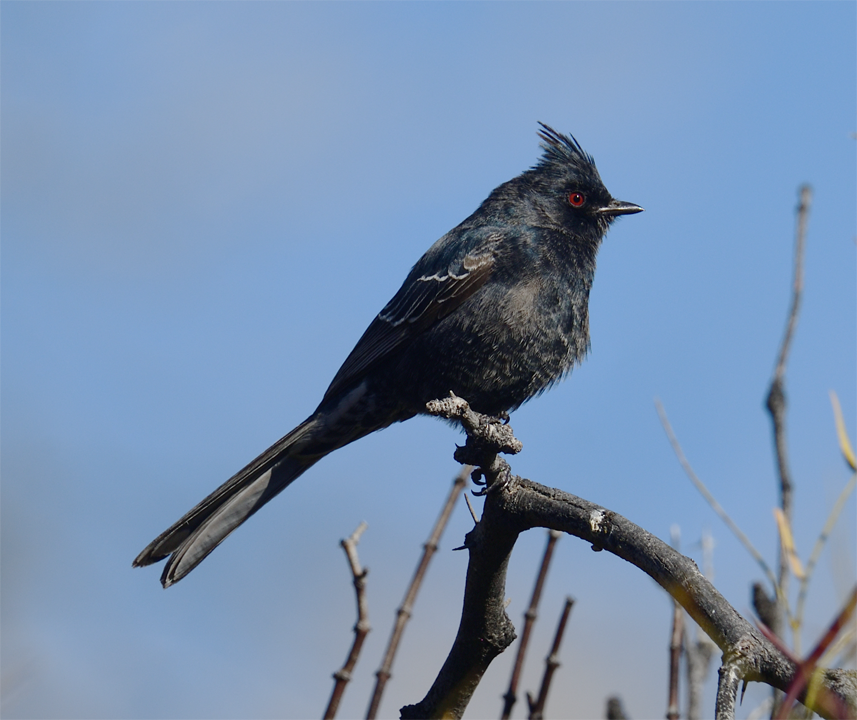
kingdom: Animalia
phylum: Chordata
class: Aves
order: Passeriformes
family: Ptilogonatidae
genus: Phainopepla
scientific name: Phainopepla nitens
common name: Phainopepla
